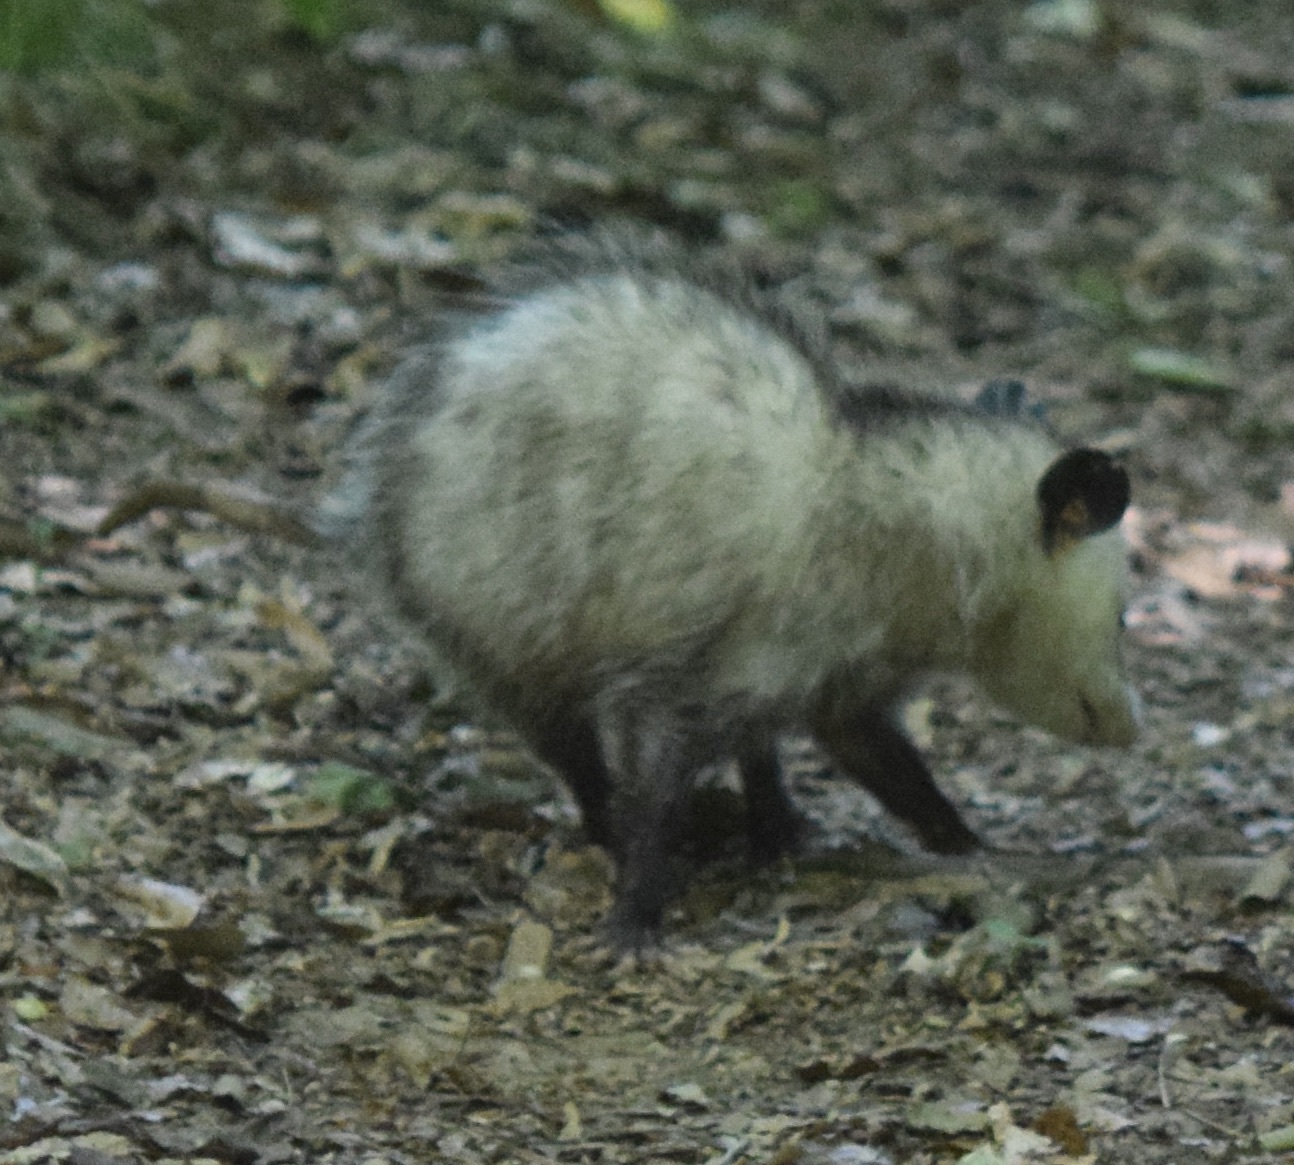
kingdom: Animalia
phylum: Chordata
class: Mammalia
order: Didelphimorphia
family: Didelphidae
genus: Didelphis
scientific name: Didelphis virginiana
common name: Virginia opossum
